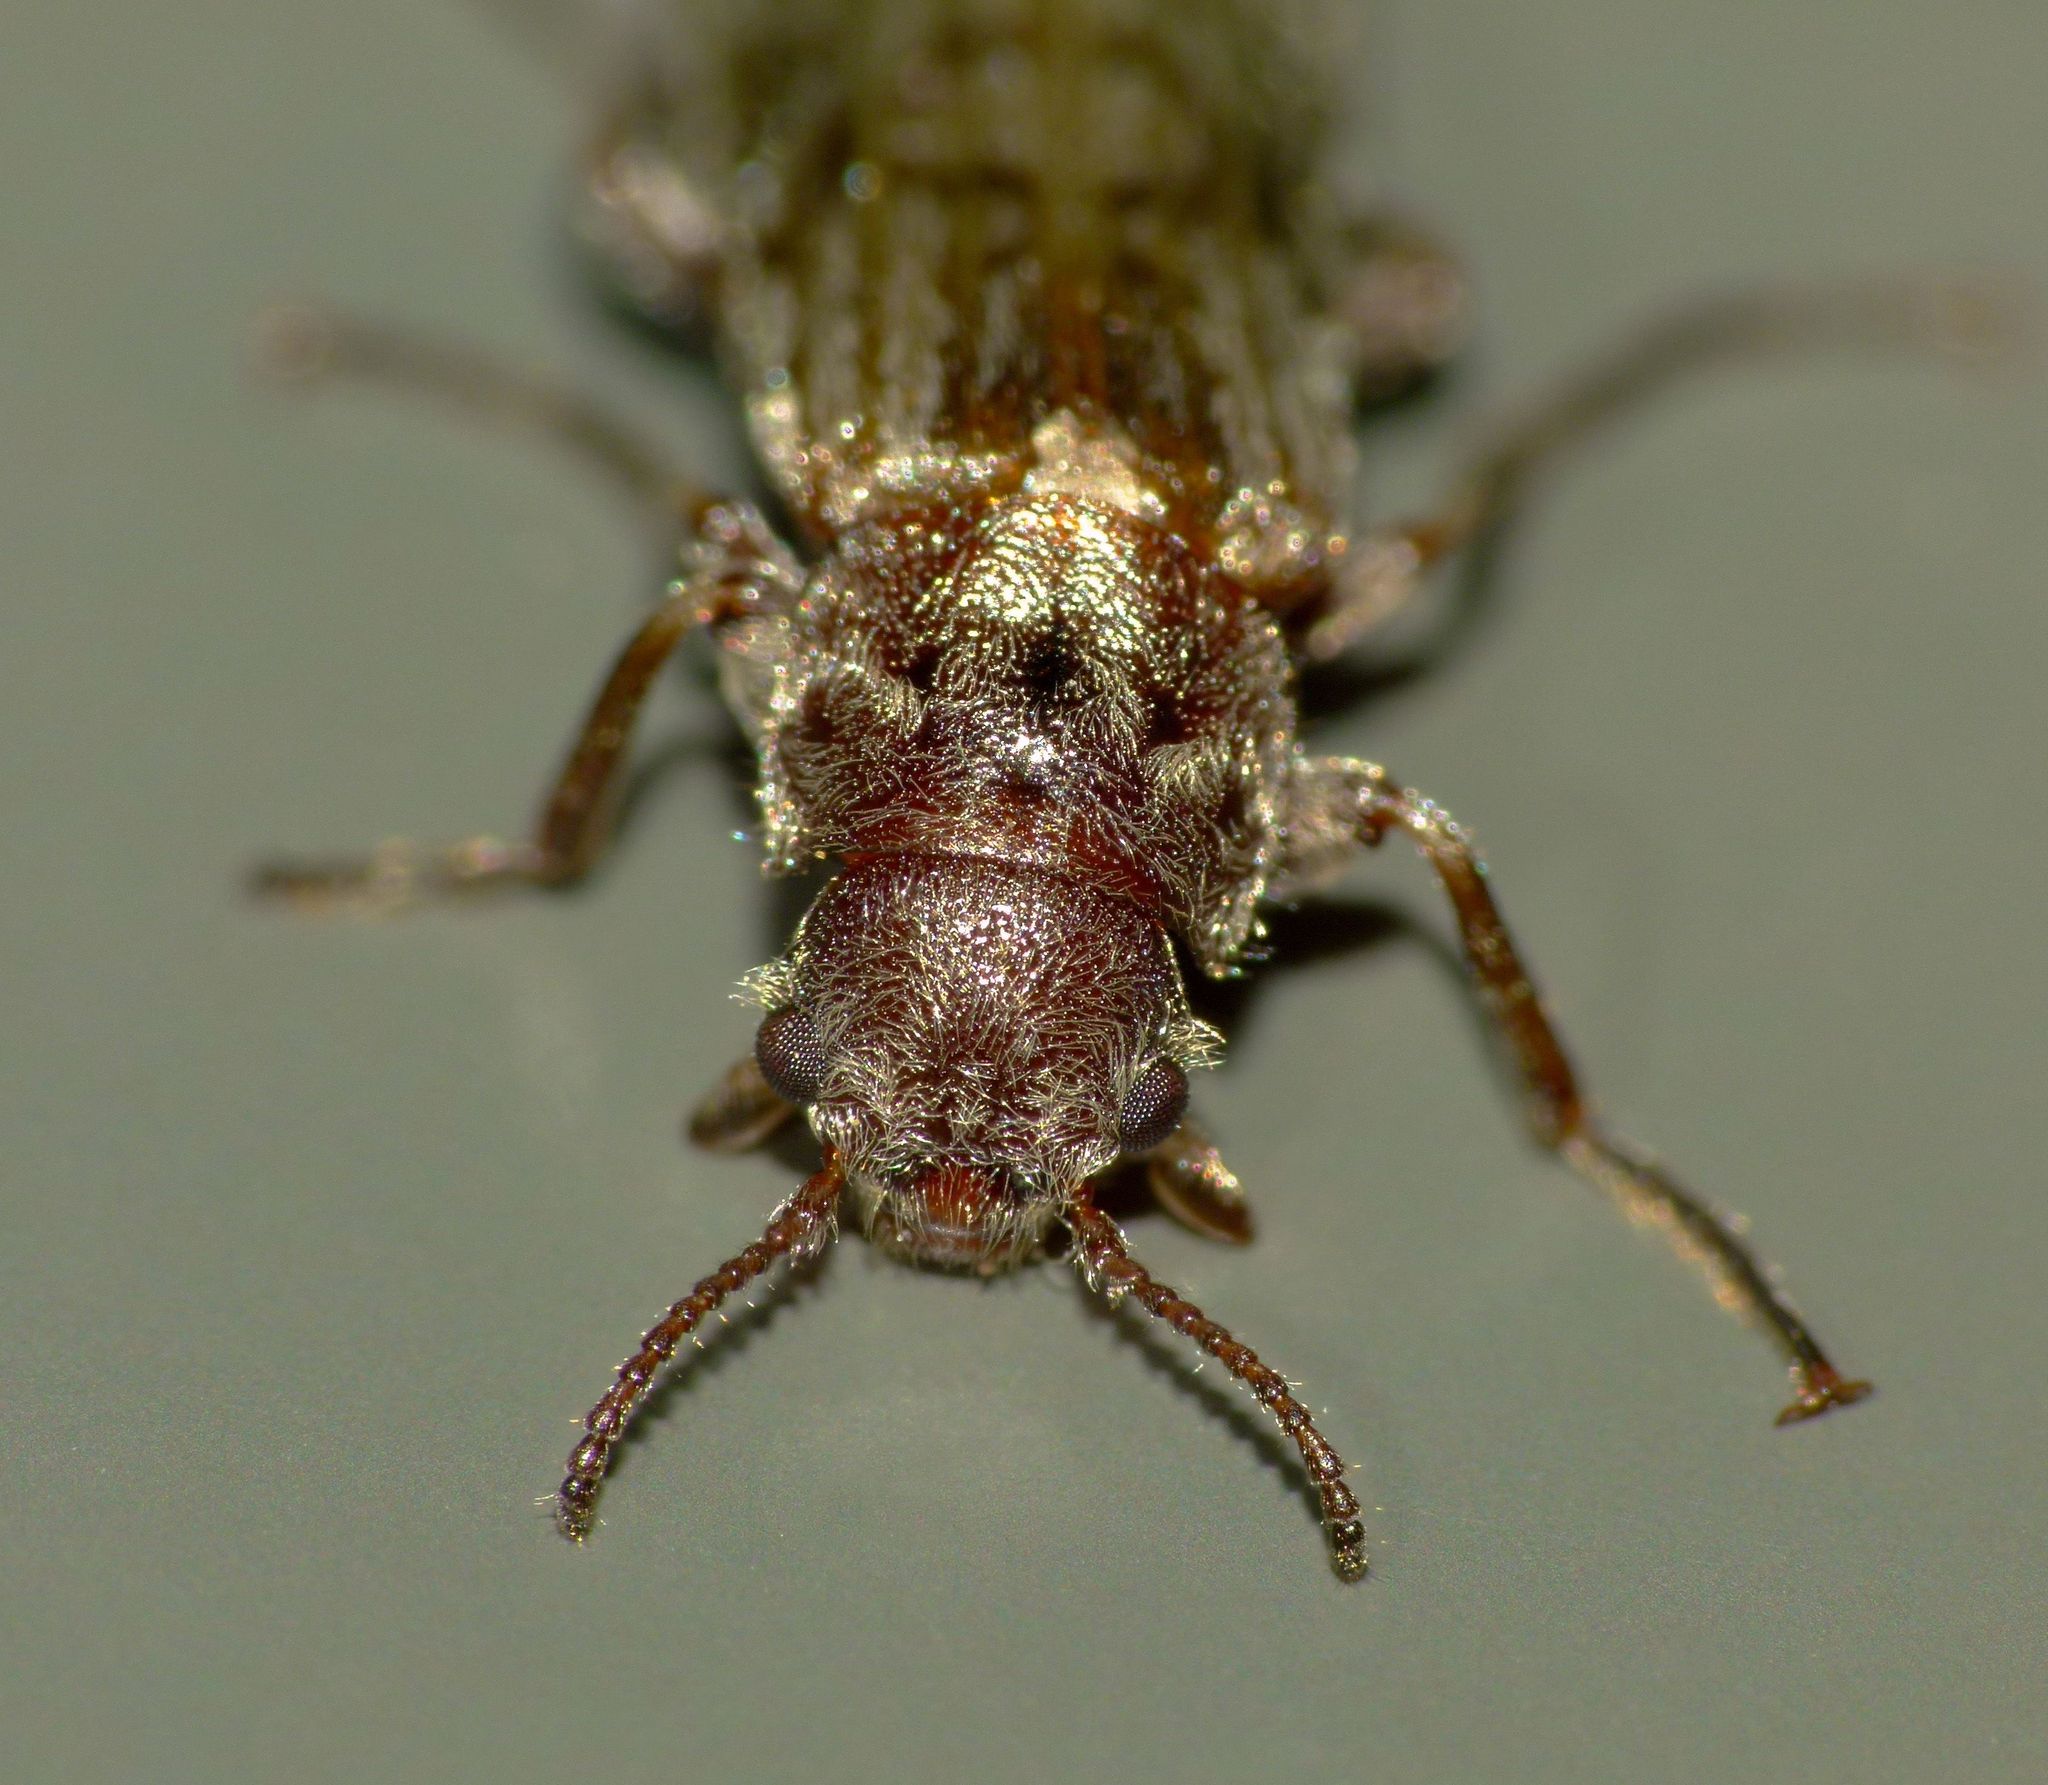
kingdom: Animalia
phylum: Arthropoda
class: Insecta
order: Coleoptera
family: Chalcodryidae
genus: Philpottia
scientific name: Philpottia
